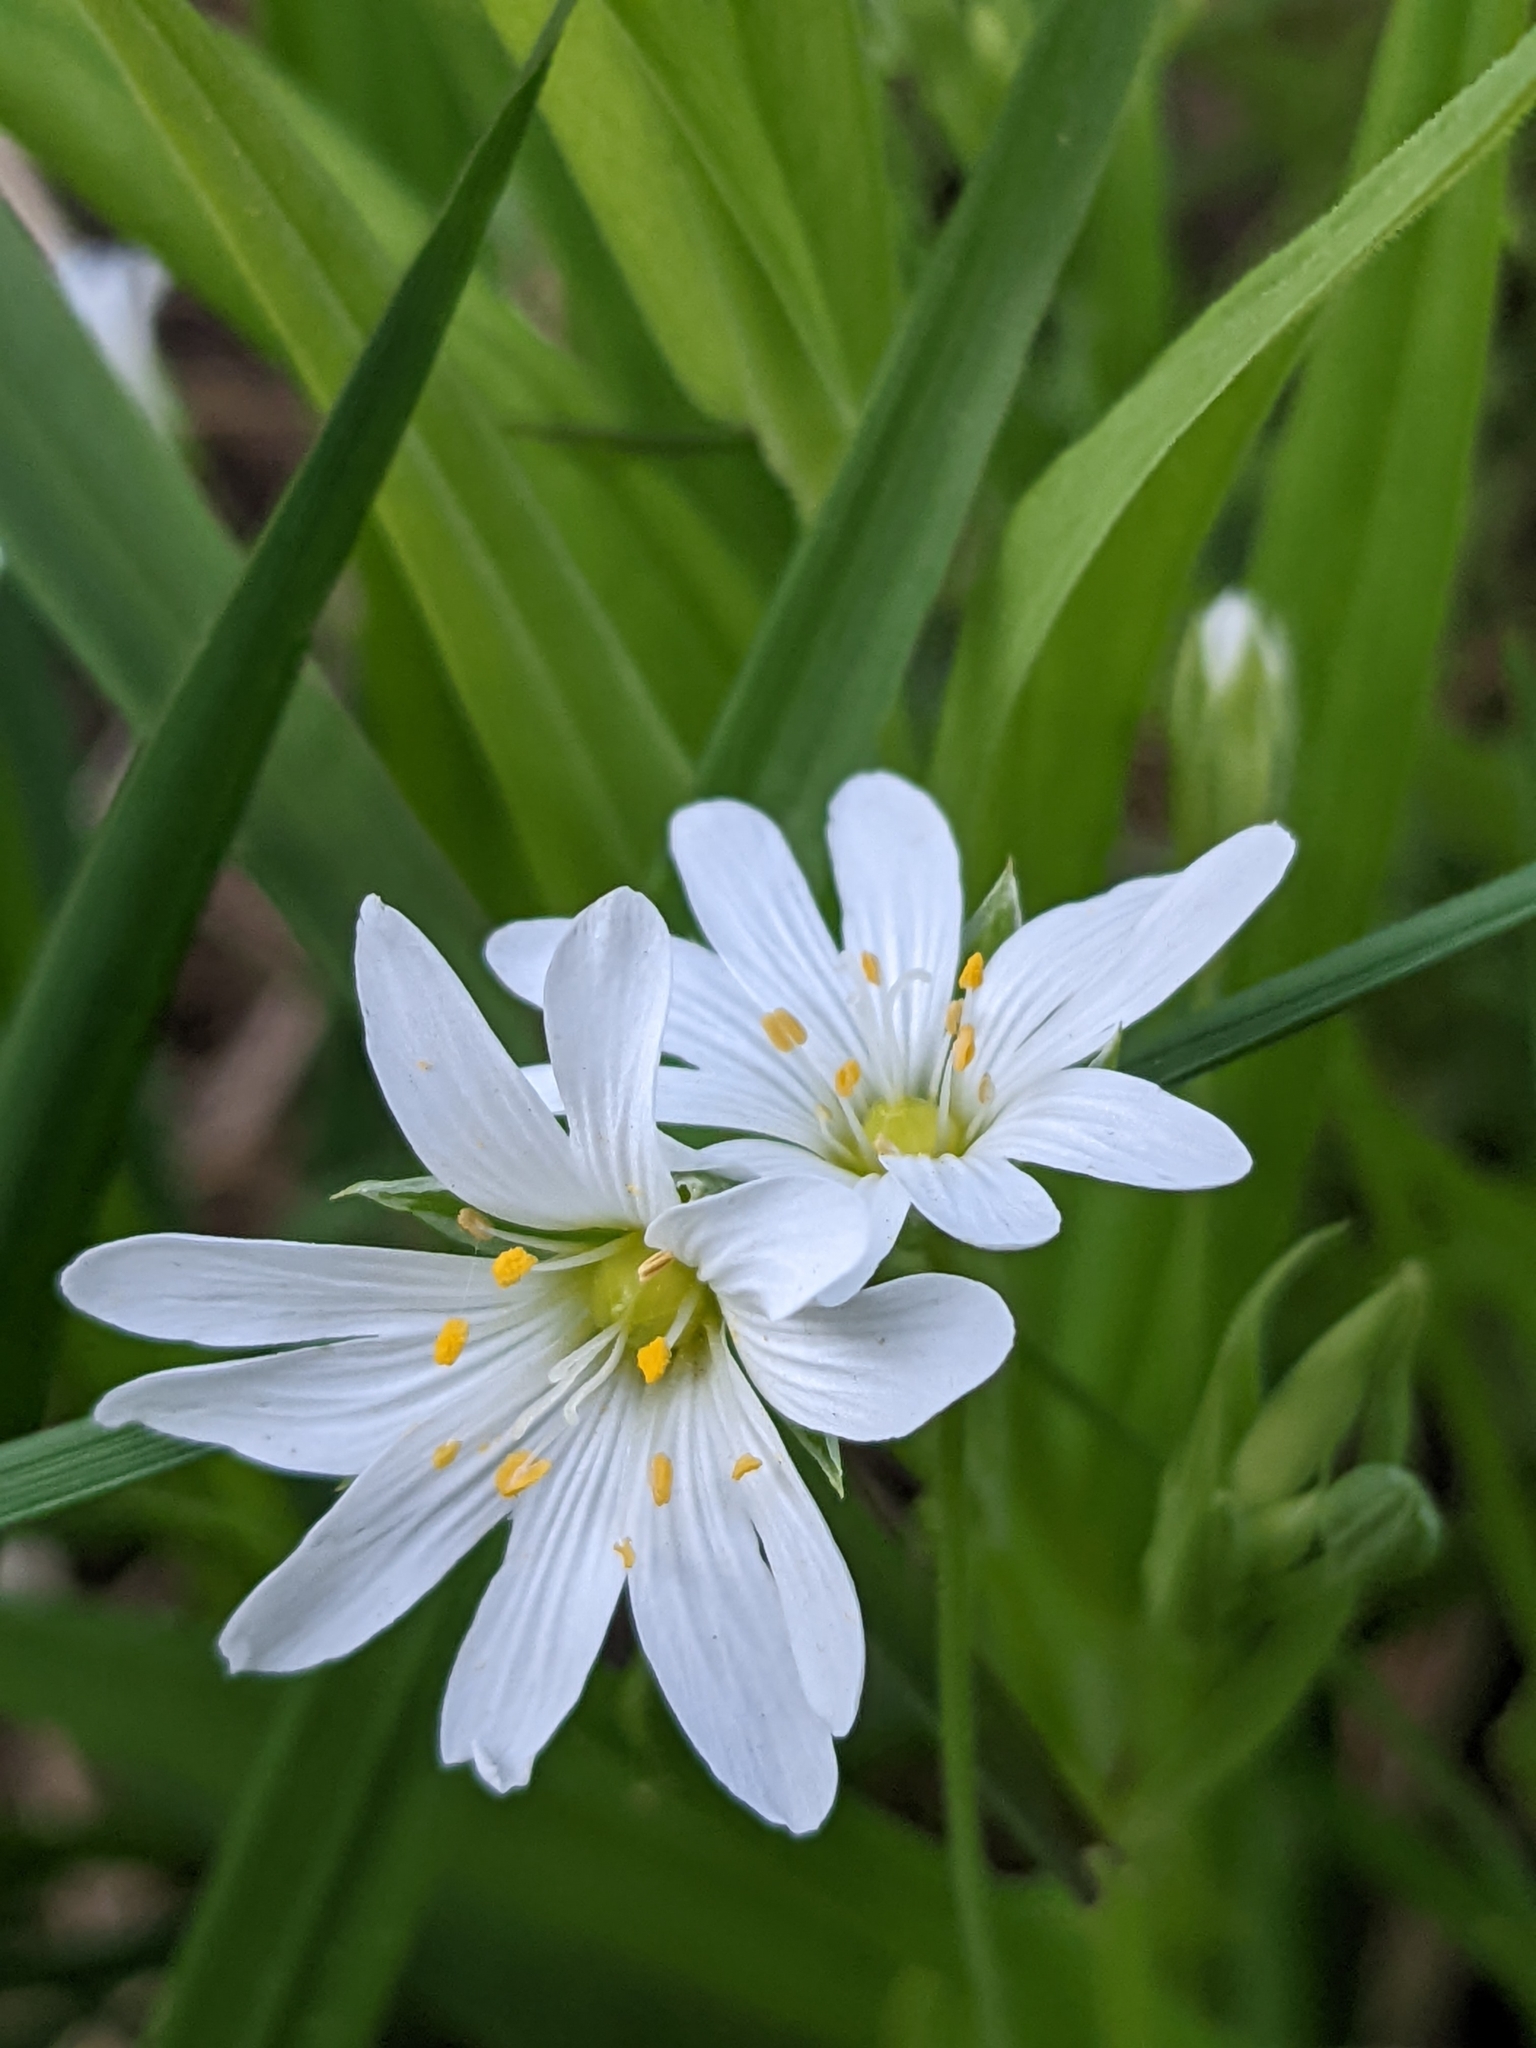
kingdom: Plantae
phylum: Tracheophyta
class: Magnoliopsida
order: Caryophyllales
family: Caryophyllaceae
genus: Rabelera
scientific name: Rabelera holostea
